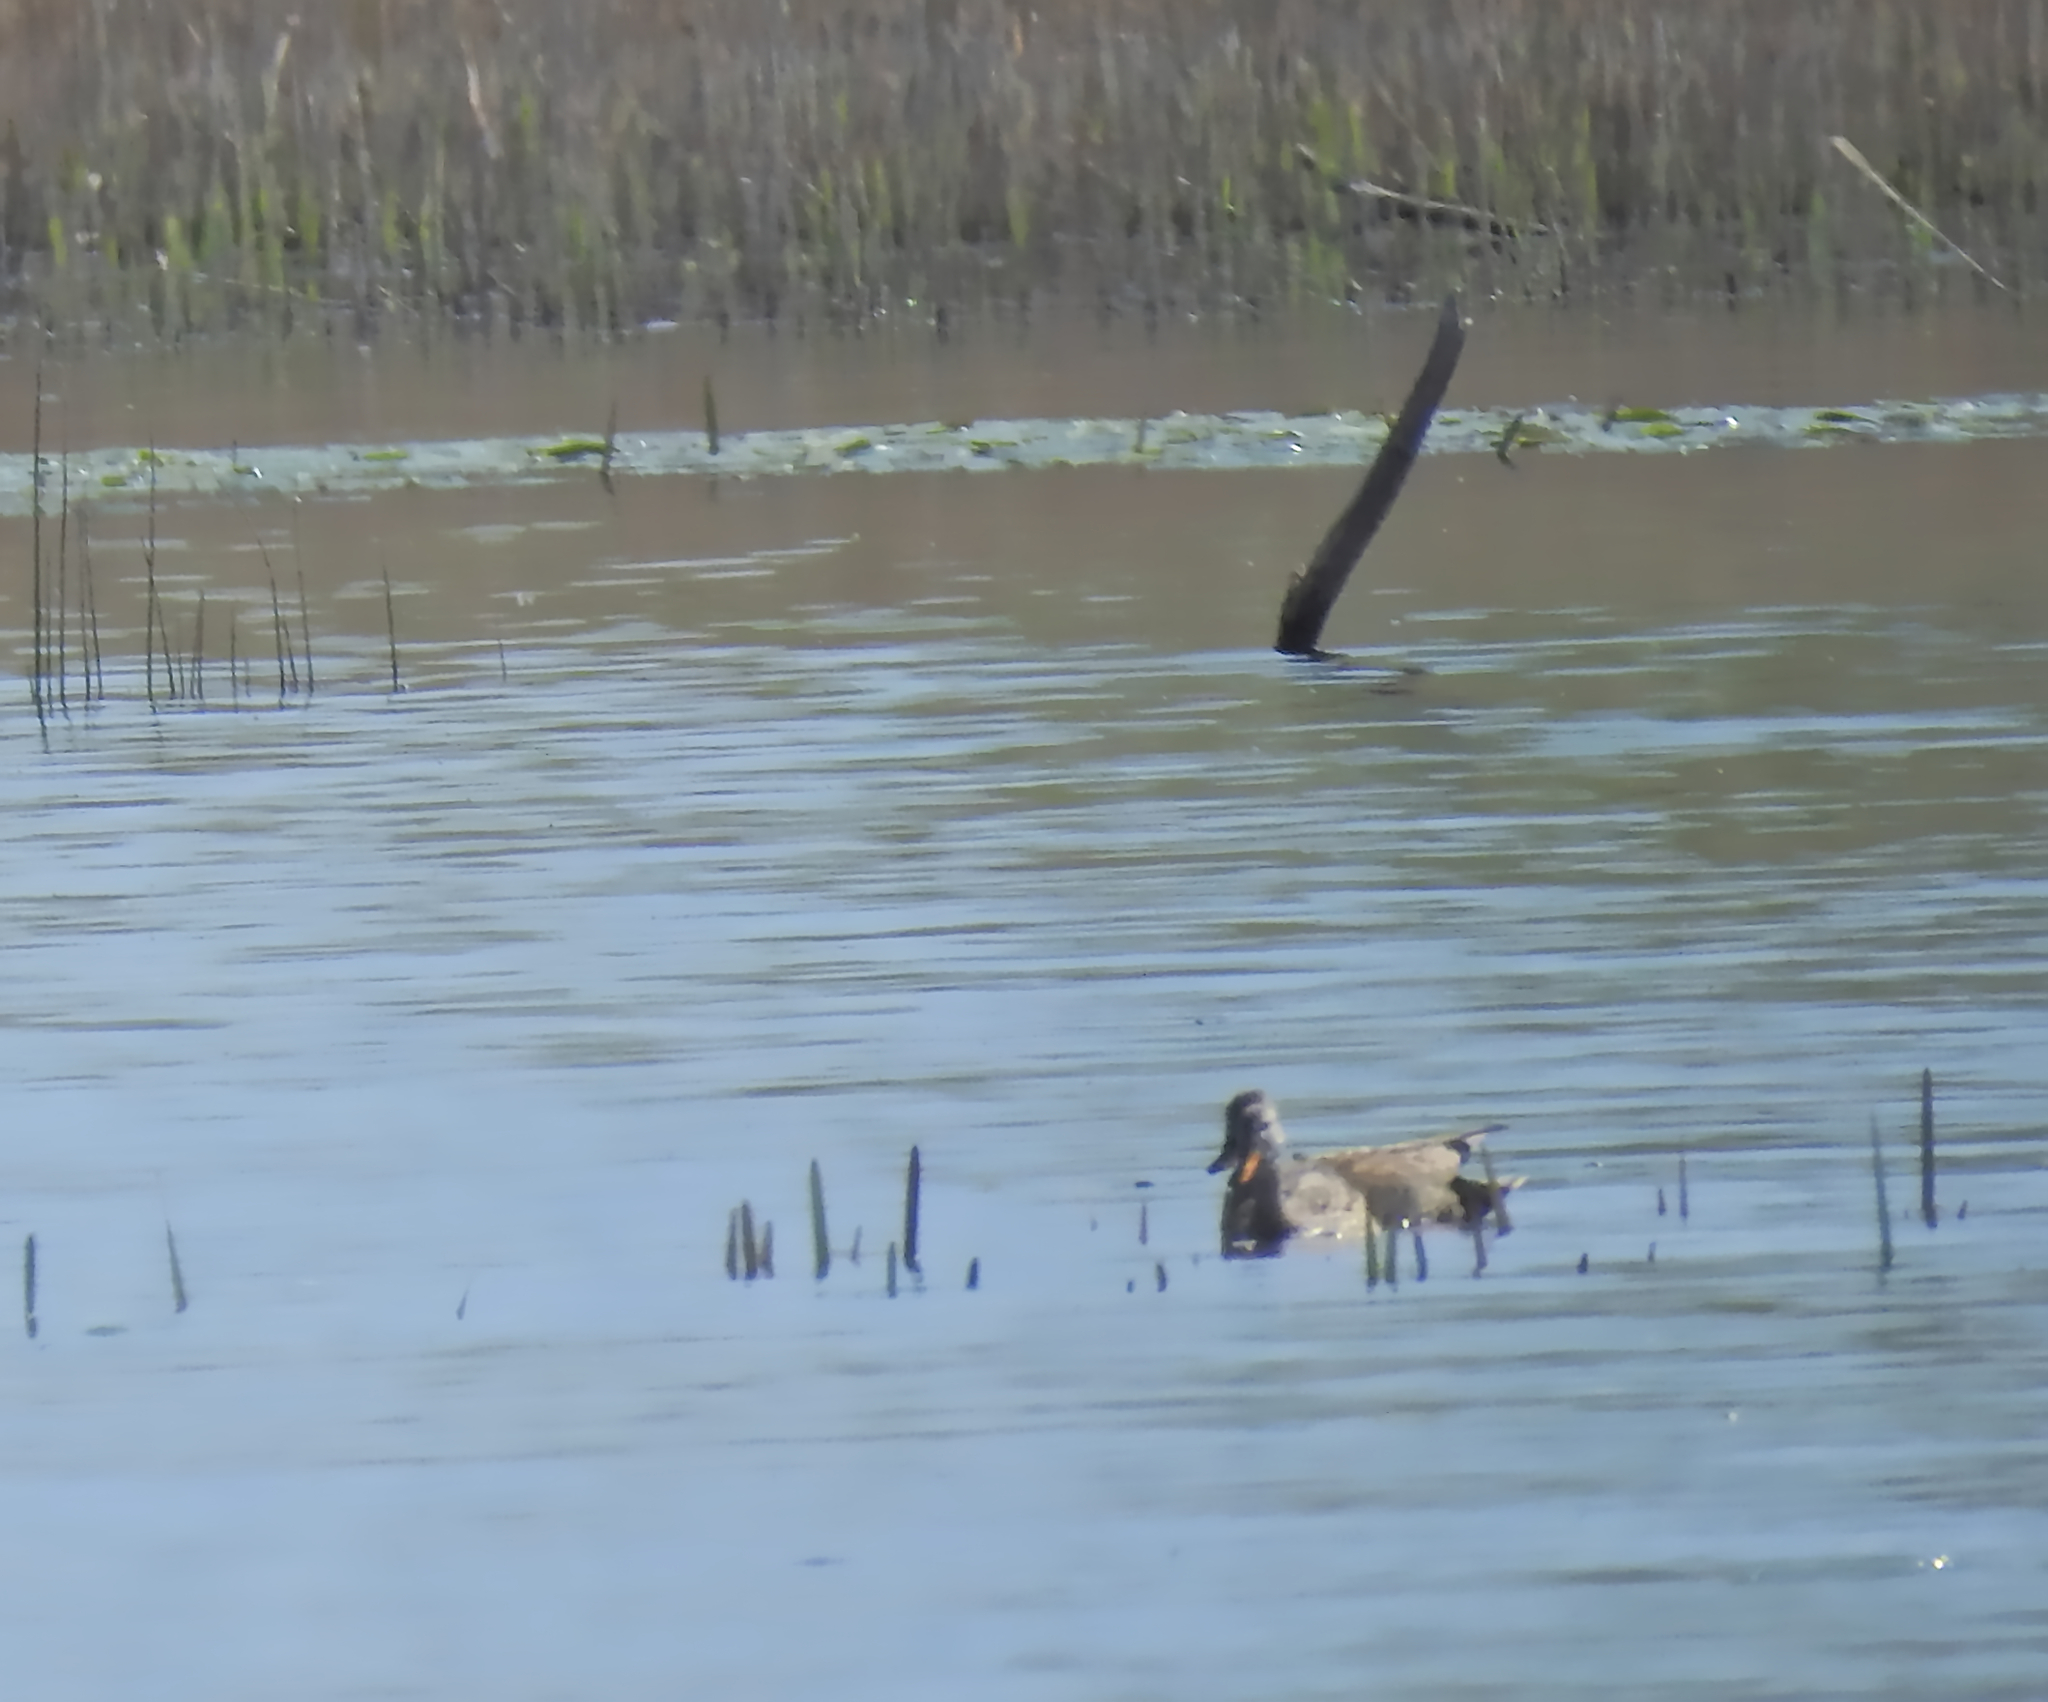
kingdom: Animalia
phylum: Chordata
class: Aves
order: Anseriformes
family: Anatidae
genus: Mareca
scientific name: Mareca strepera
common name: Gadwall
